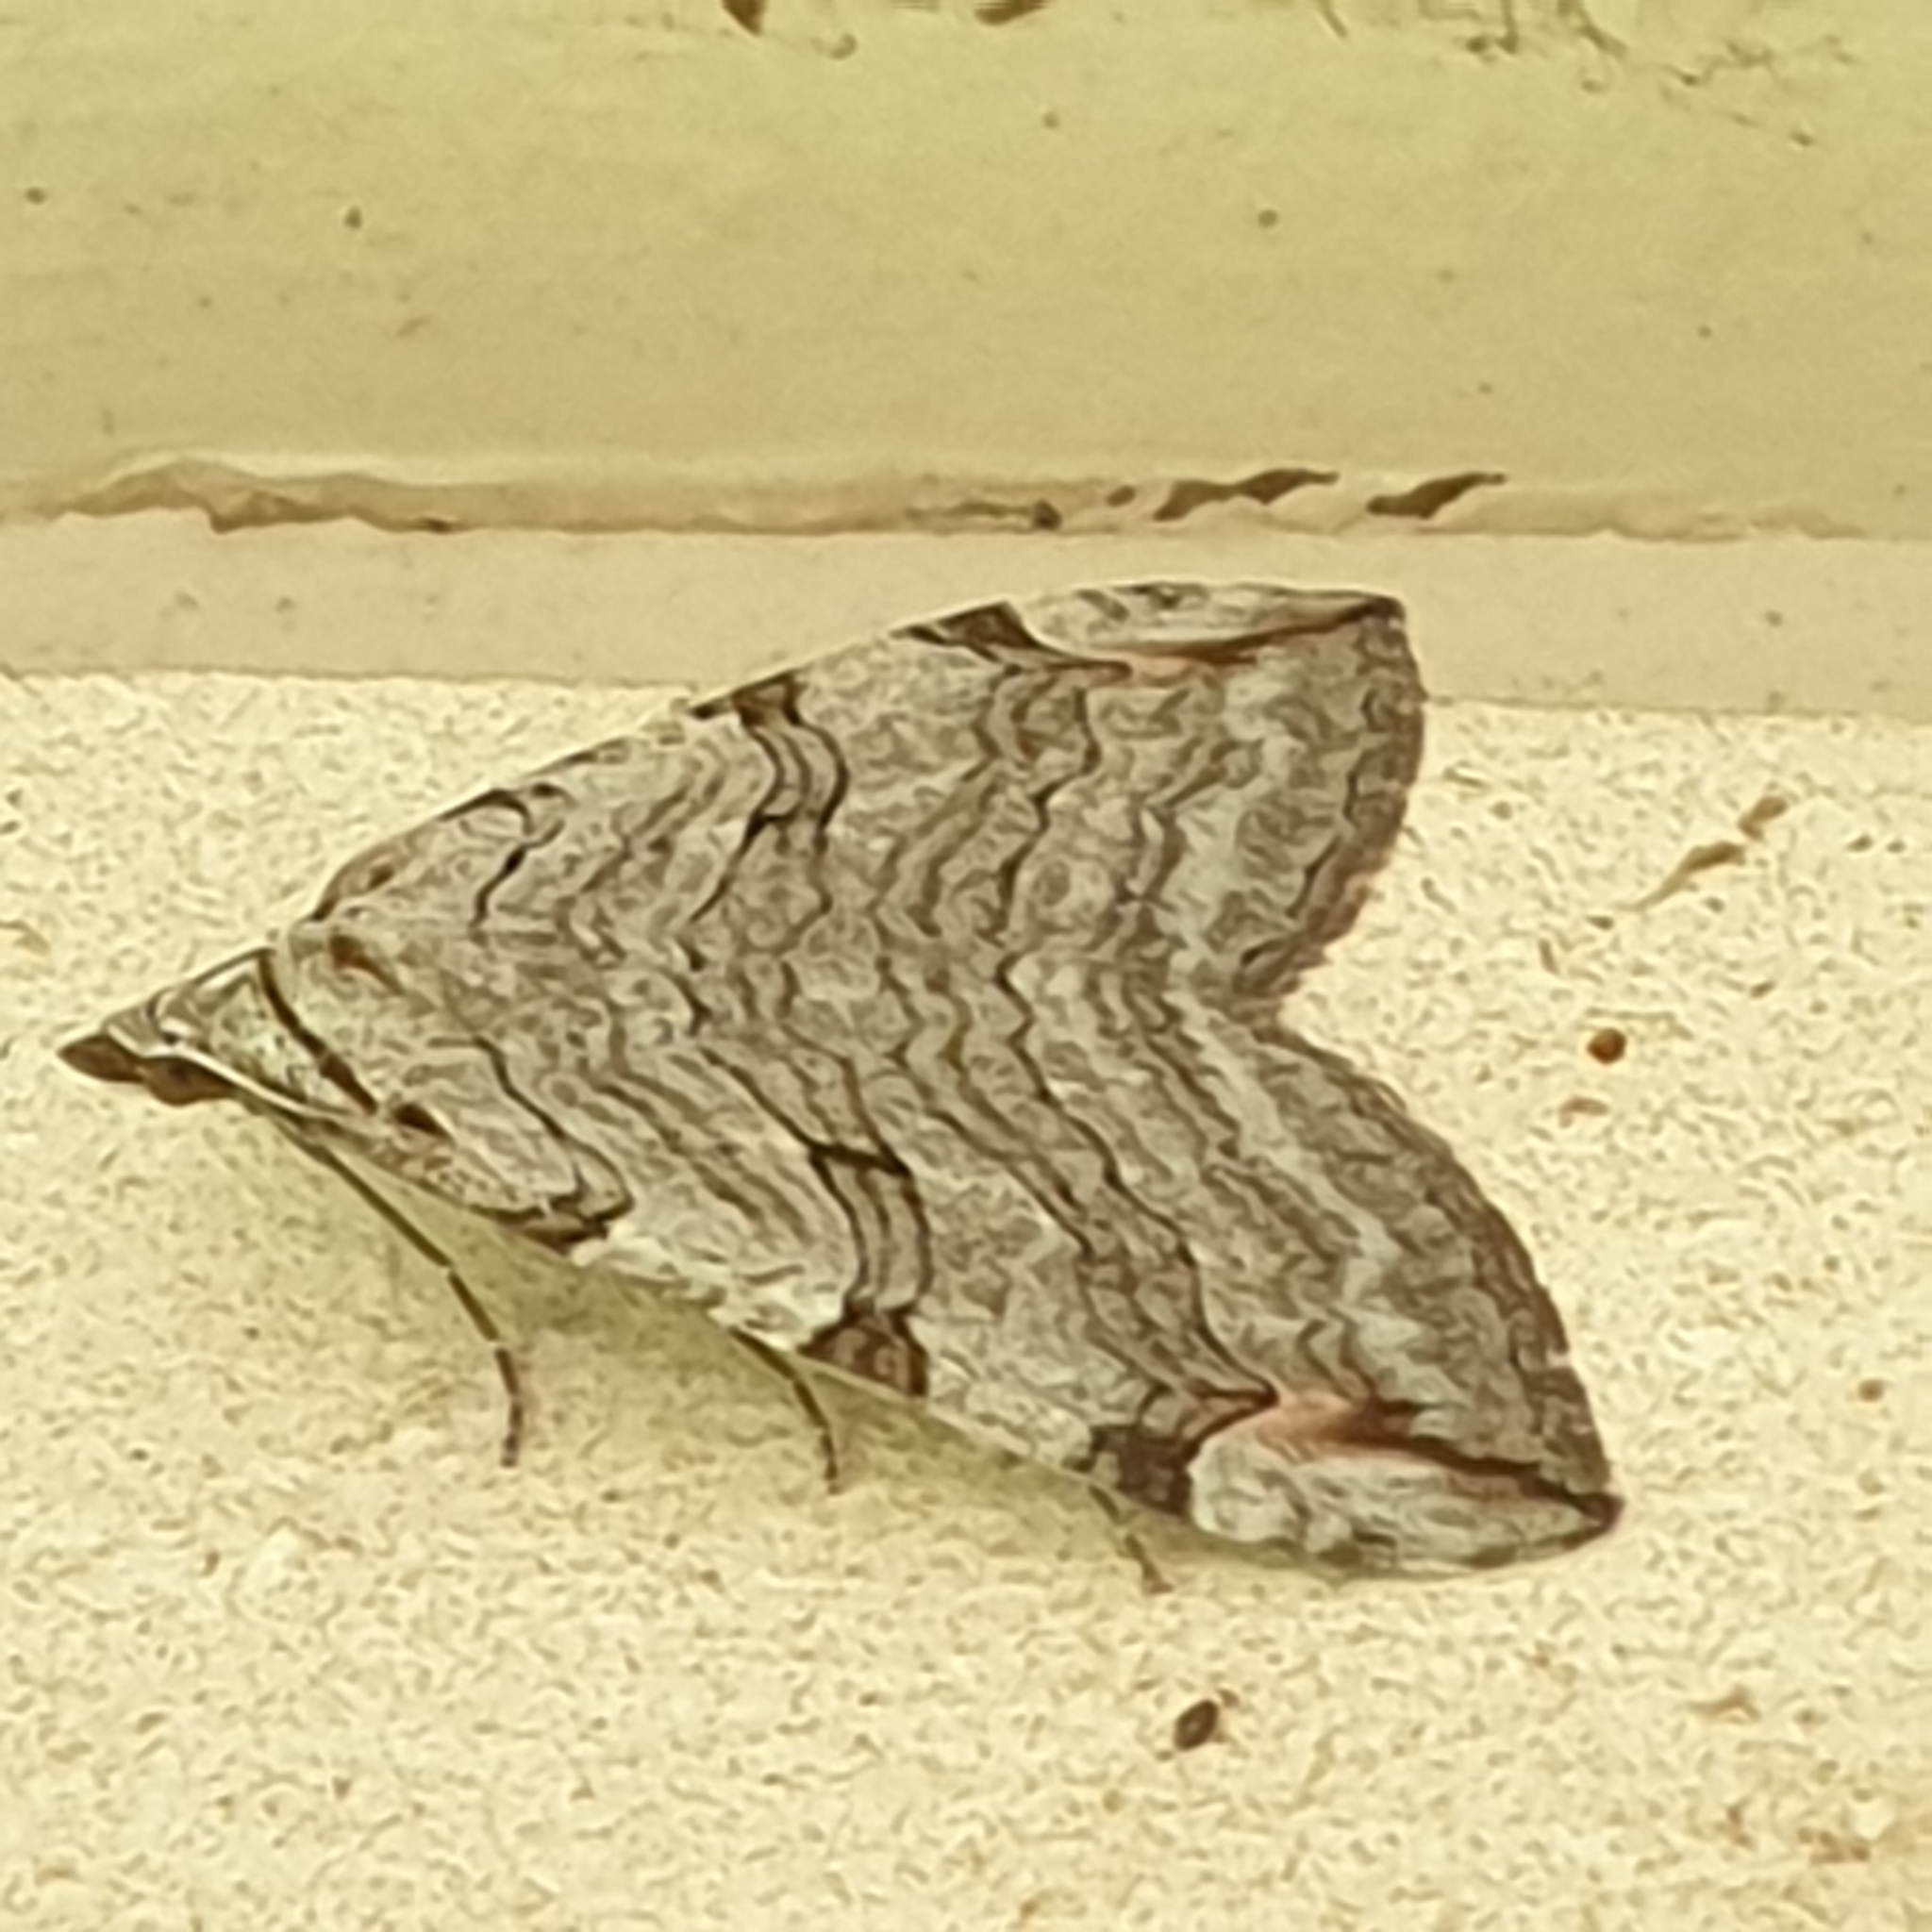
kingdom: Animalia
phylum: Arthropoda
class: Insecta
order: Lepidoptera
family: Geometridae
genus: Aplocera
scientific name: Aplocera plagiata
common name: Treble-bar
